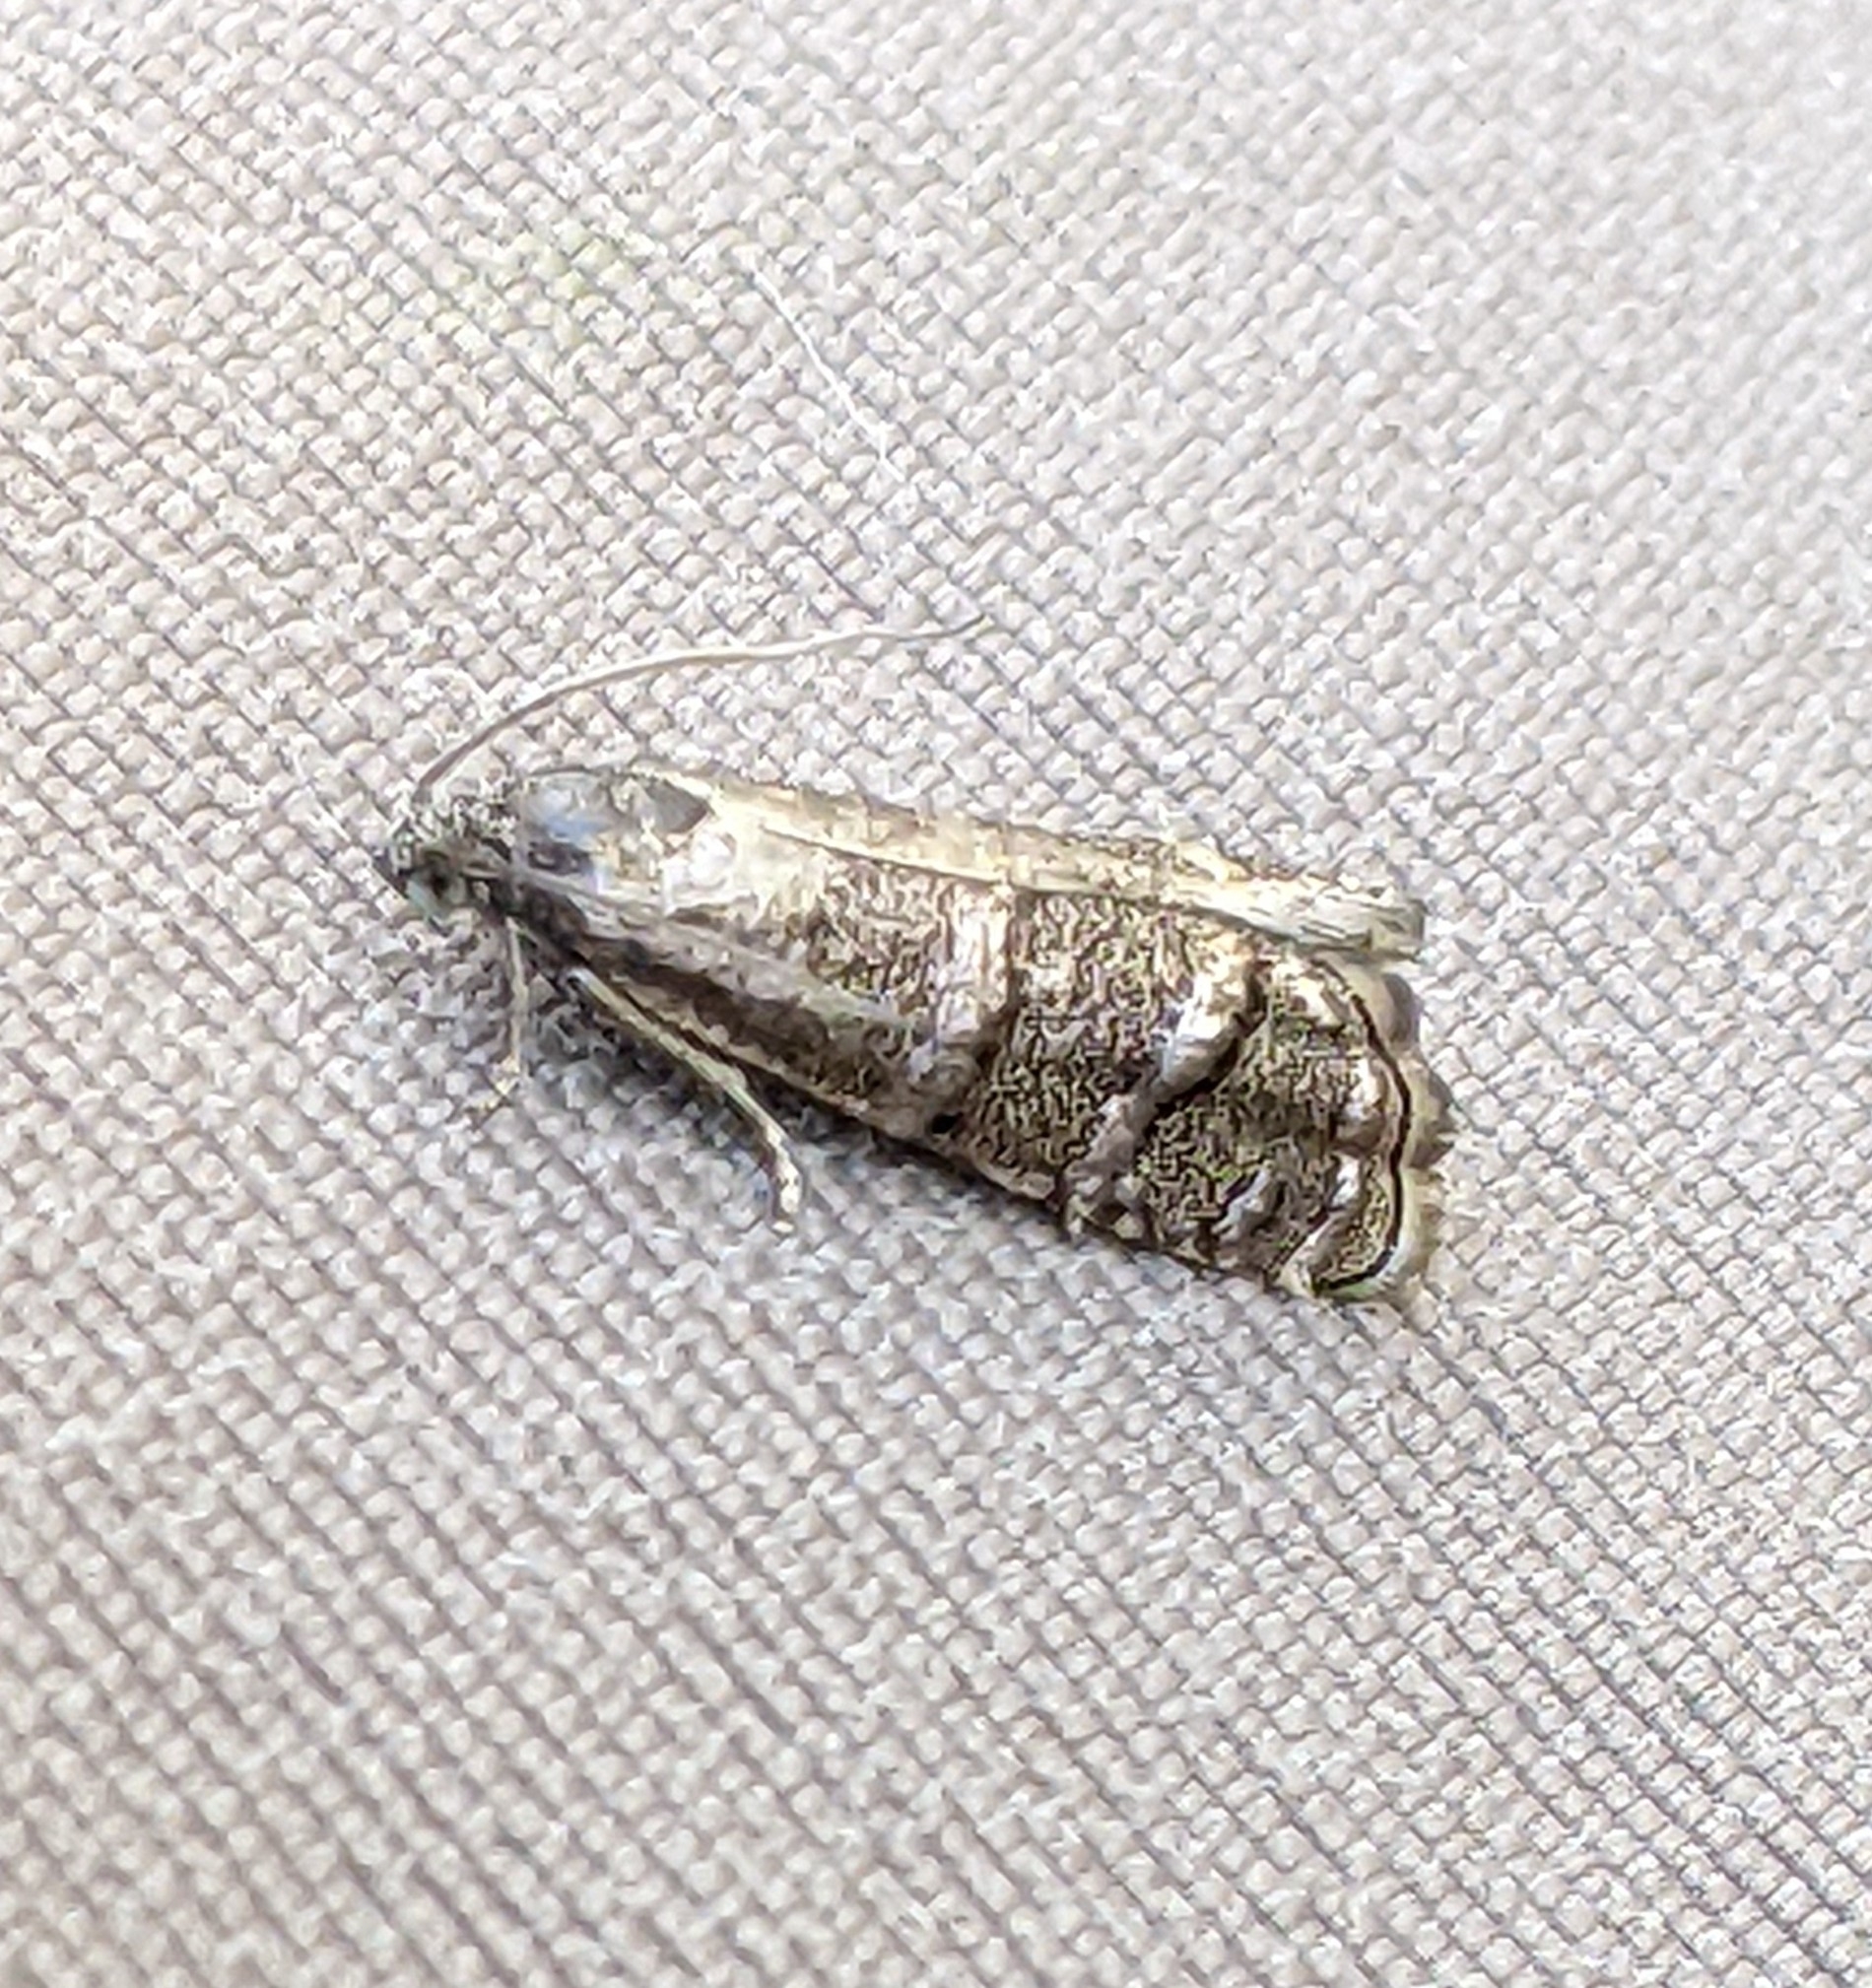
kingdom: Animalia
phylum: Arthropoda
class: Insecta
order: Lepidoptera
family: Tortricidae
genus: Cydia
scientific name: Cydia piperana
